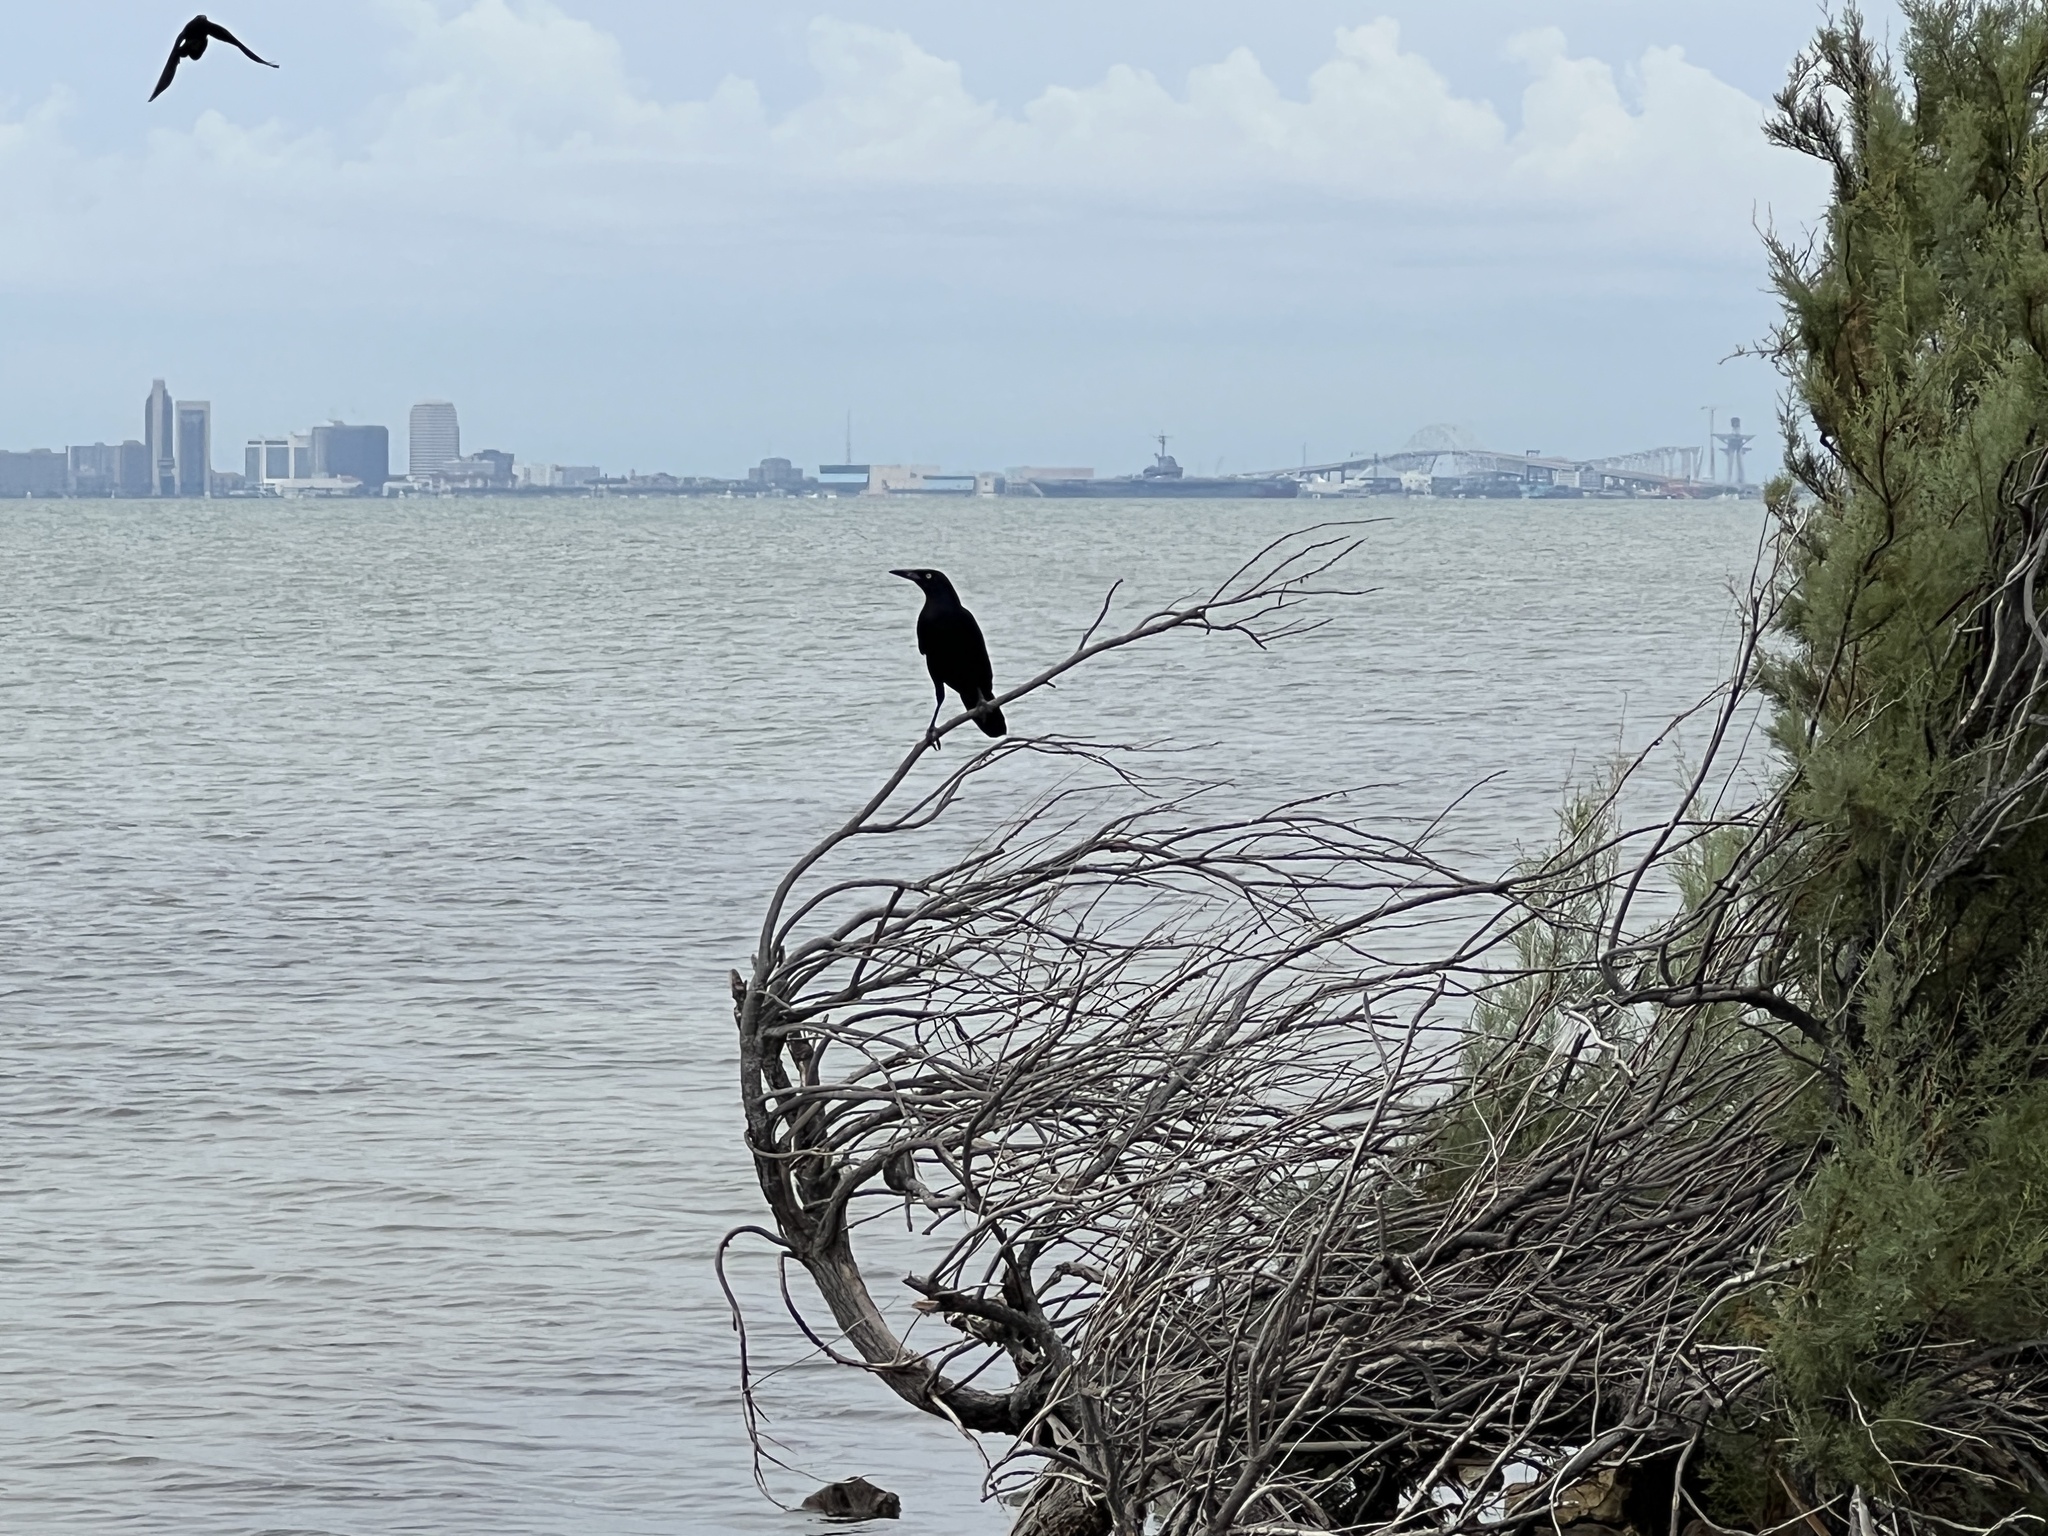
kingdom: Animalia
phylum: Chordata
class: Aves
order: Passeriformes
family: Icteridae
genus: Quiscalus
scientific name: Quiscalus mexicanus
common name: Great-tailed grackle
